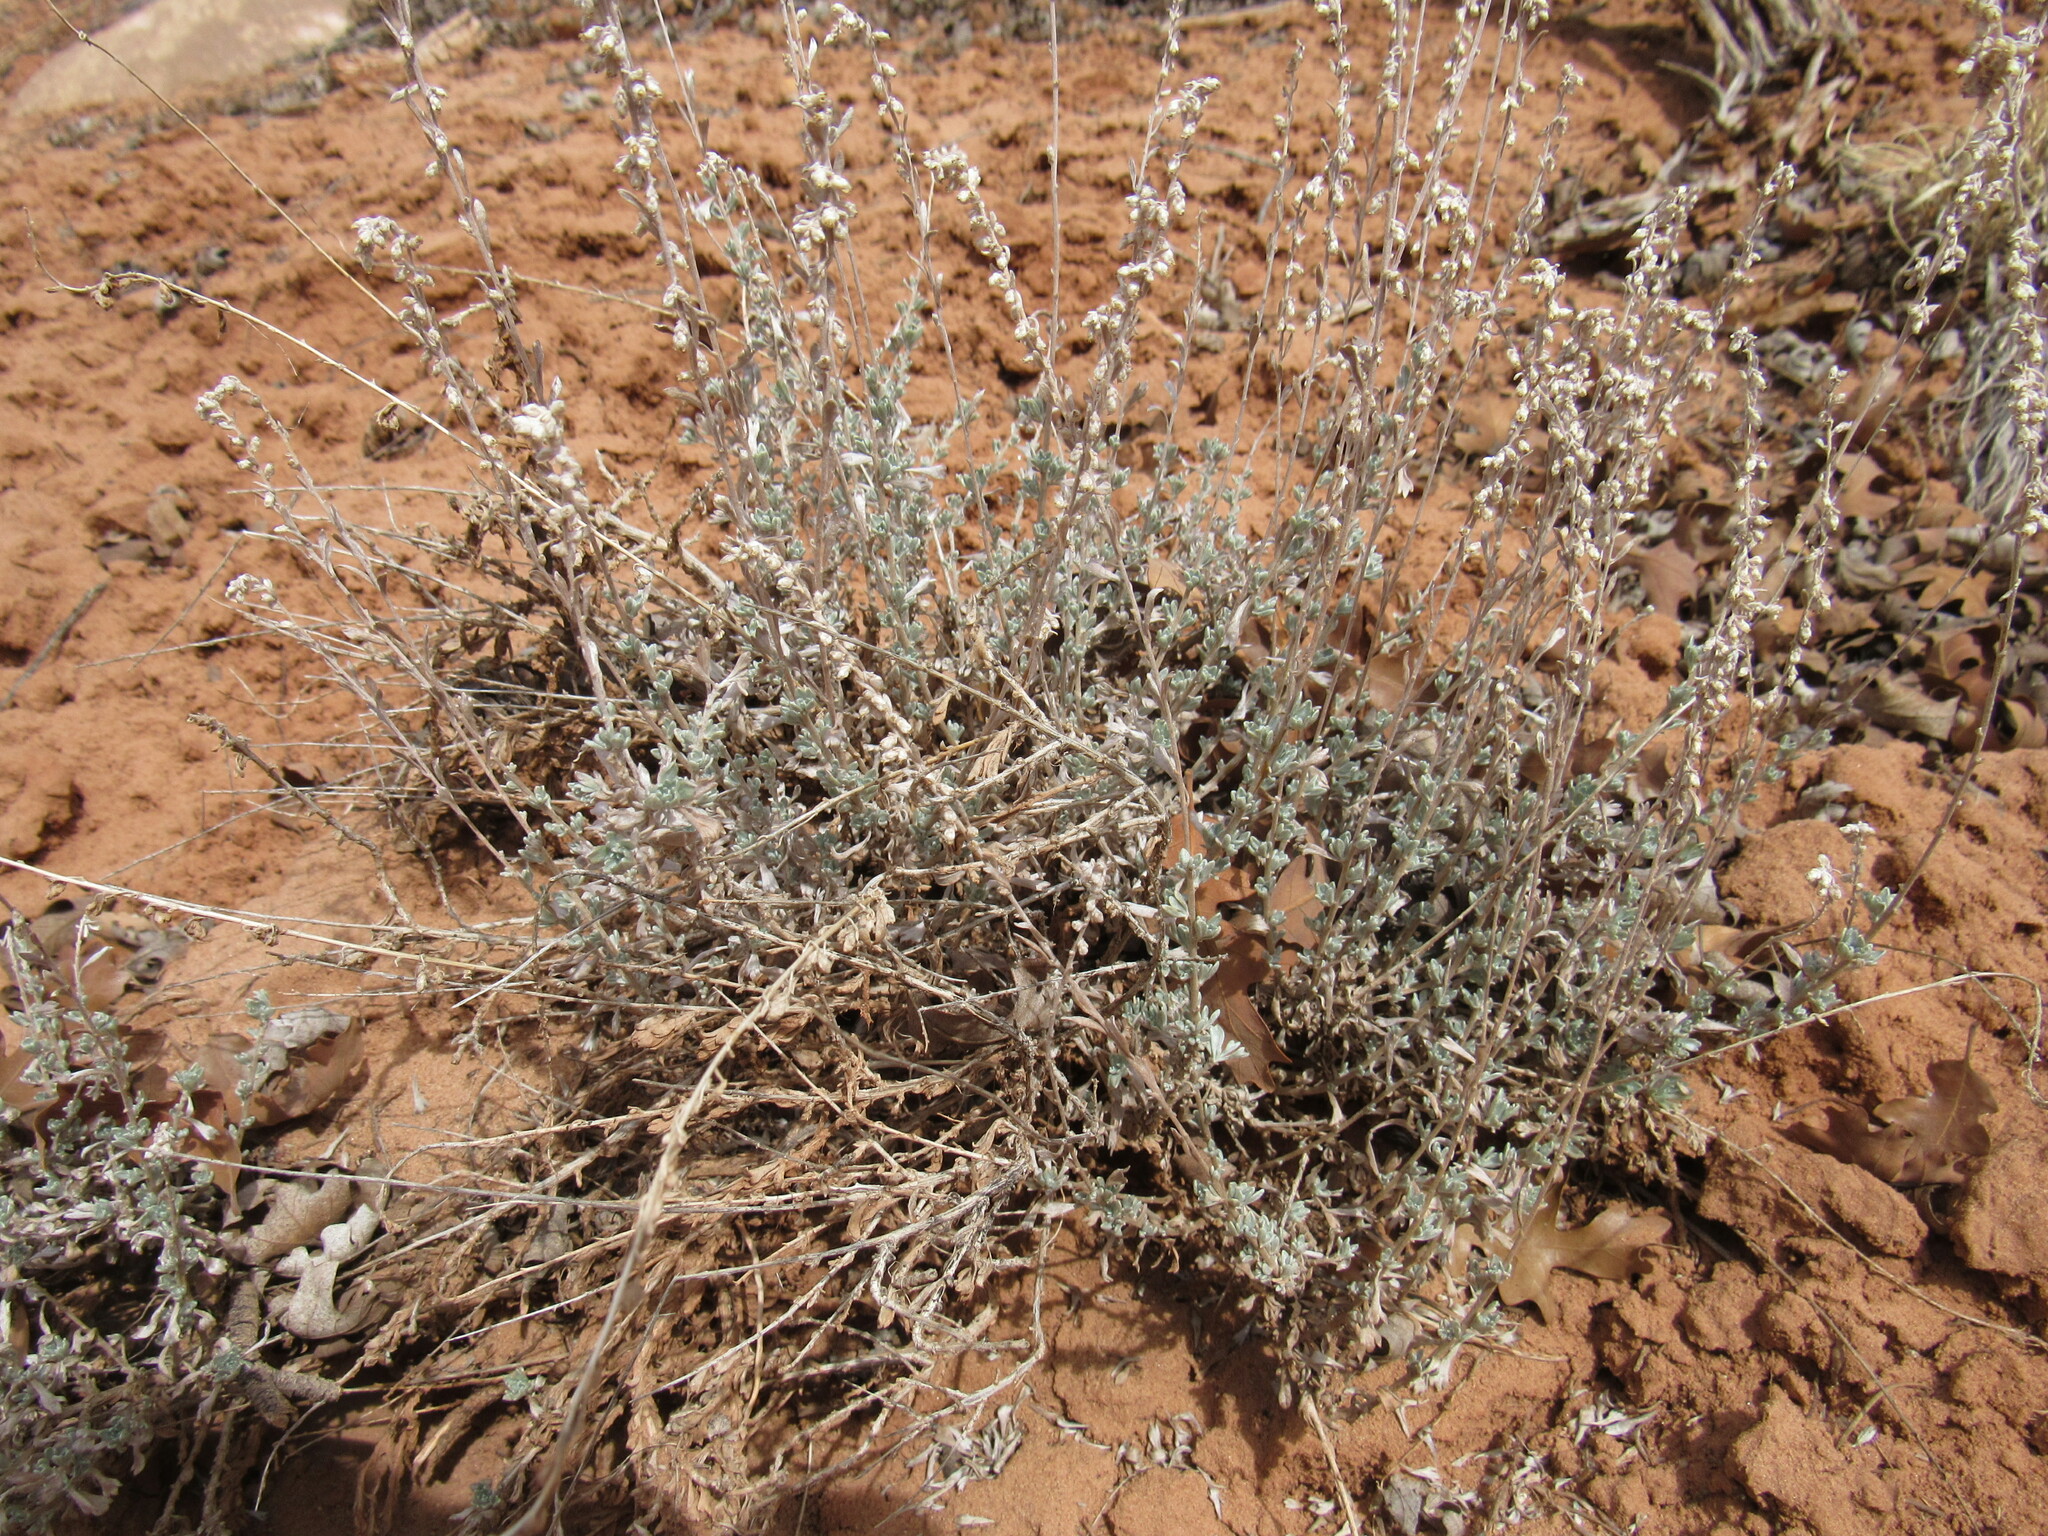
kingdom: Plantae
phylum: Tracheophyta
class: Magnoliopsida
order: Asterales
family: Asteraceae
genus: Artemisia
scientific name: Artemisia bigelovii
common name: Bigelow sagebrush
